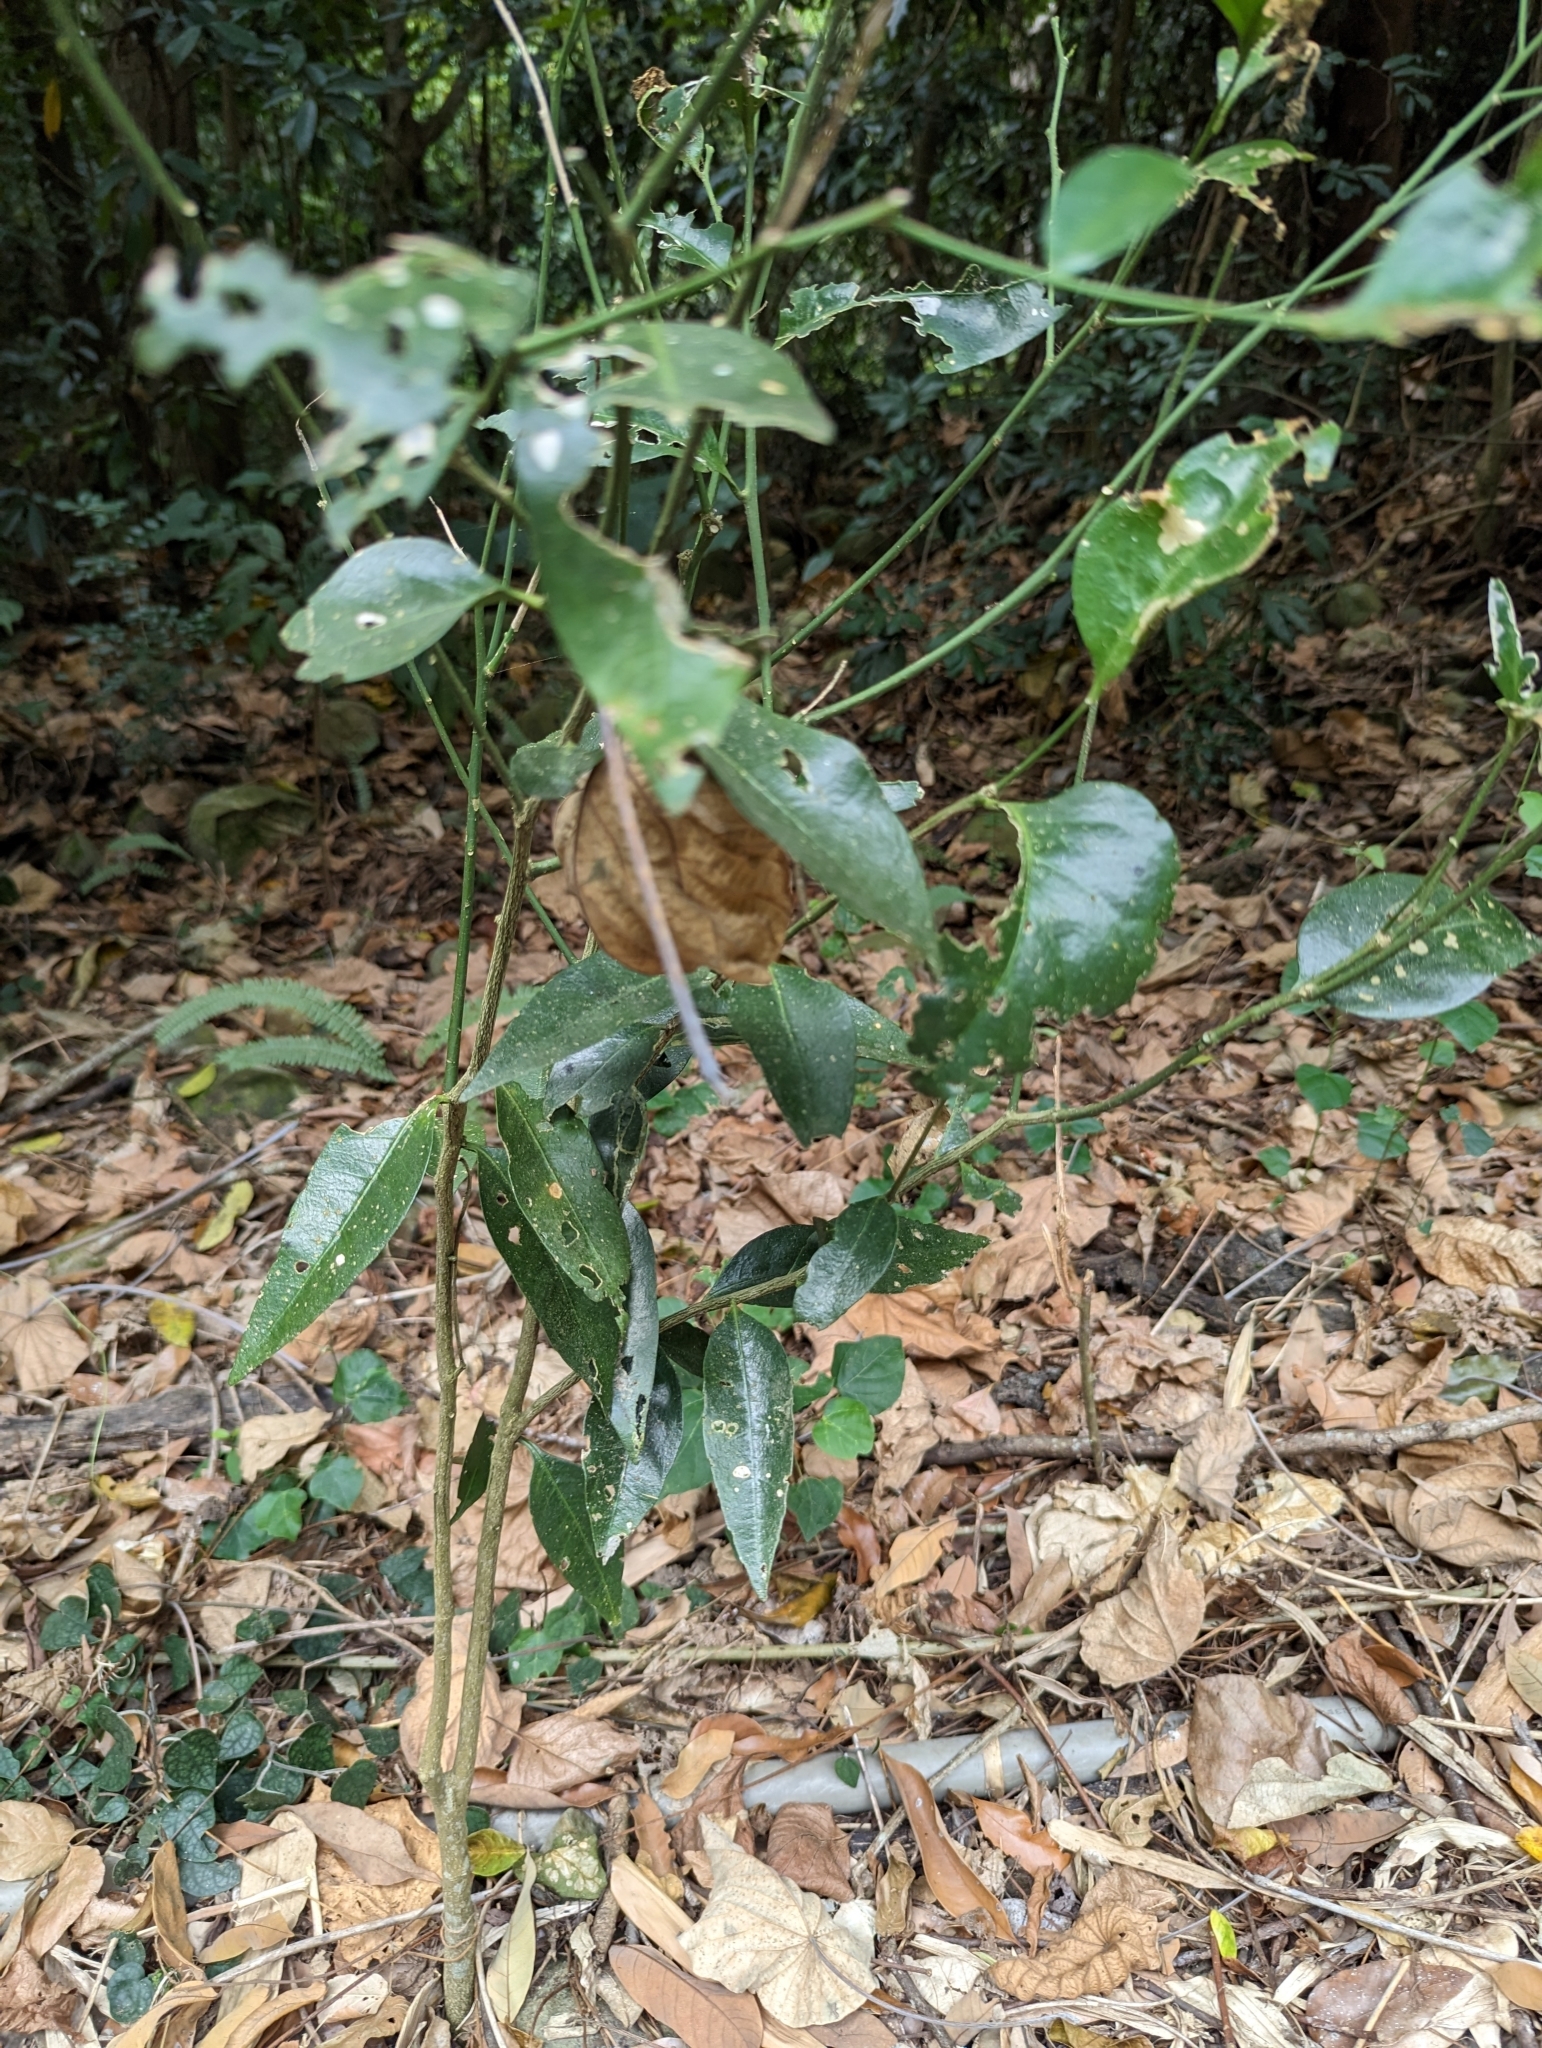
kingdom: Plantae
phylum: Tracheophyta
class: Magnoliopsida
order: Santalales
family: Opiliaceae
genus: Champereia
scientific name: Champereia manillana
